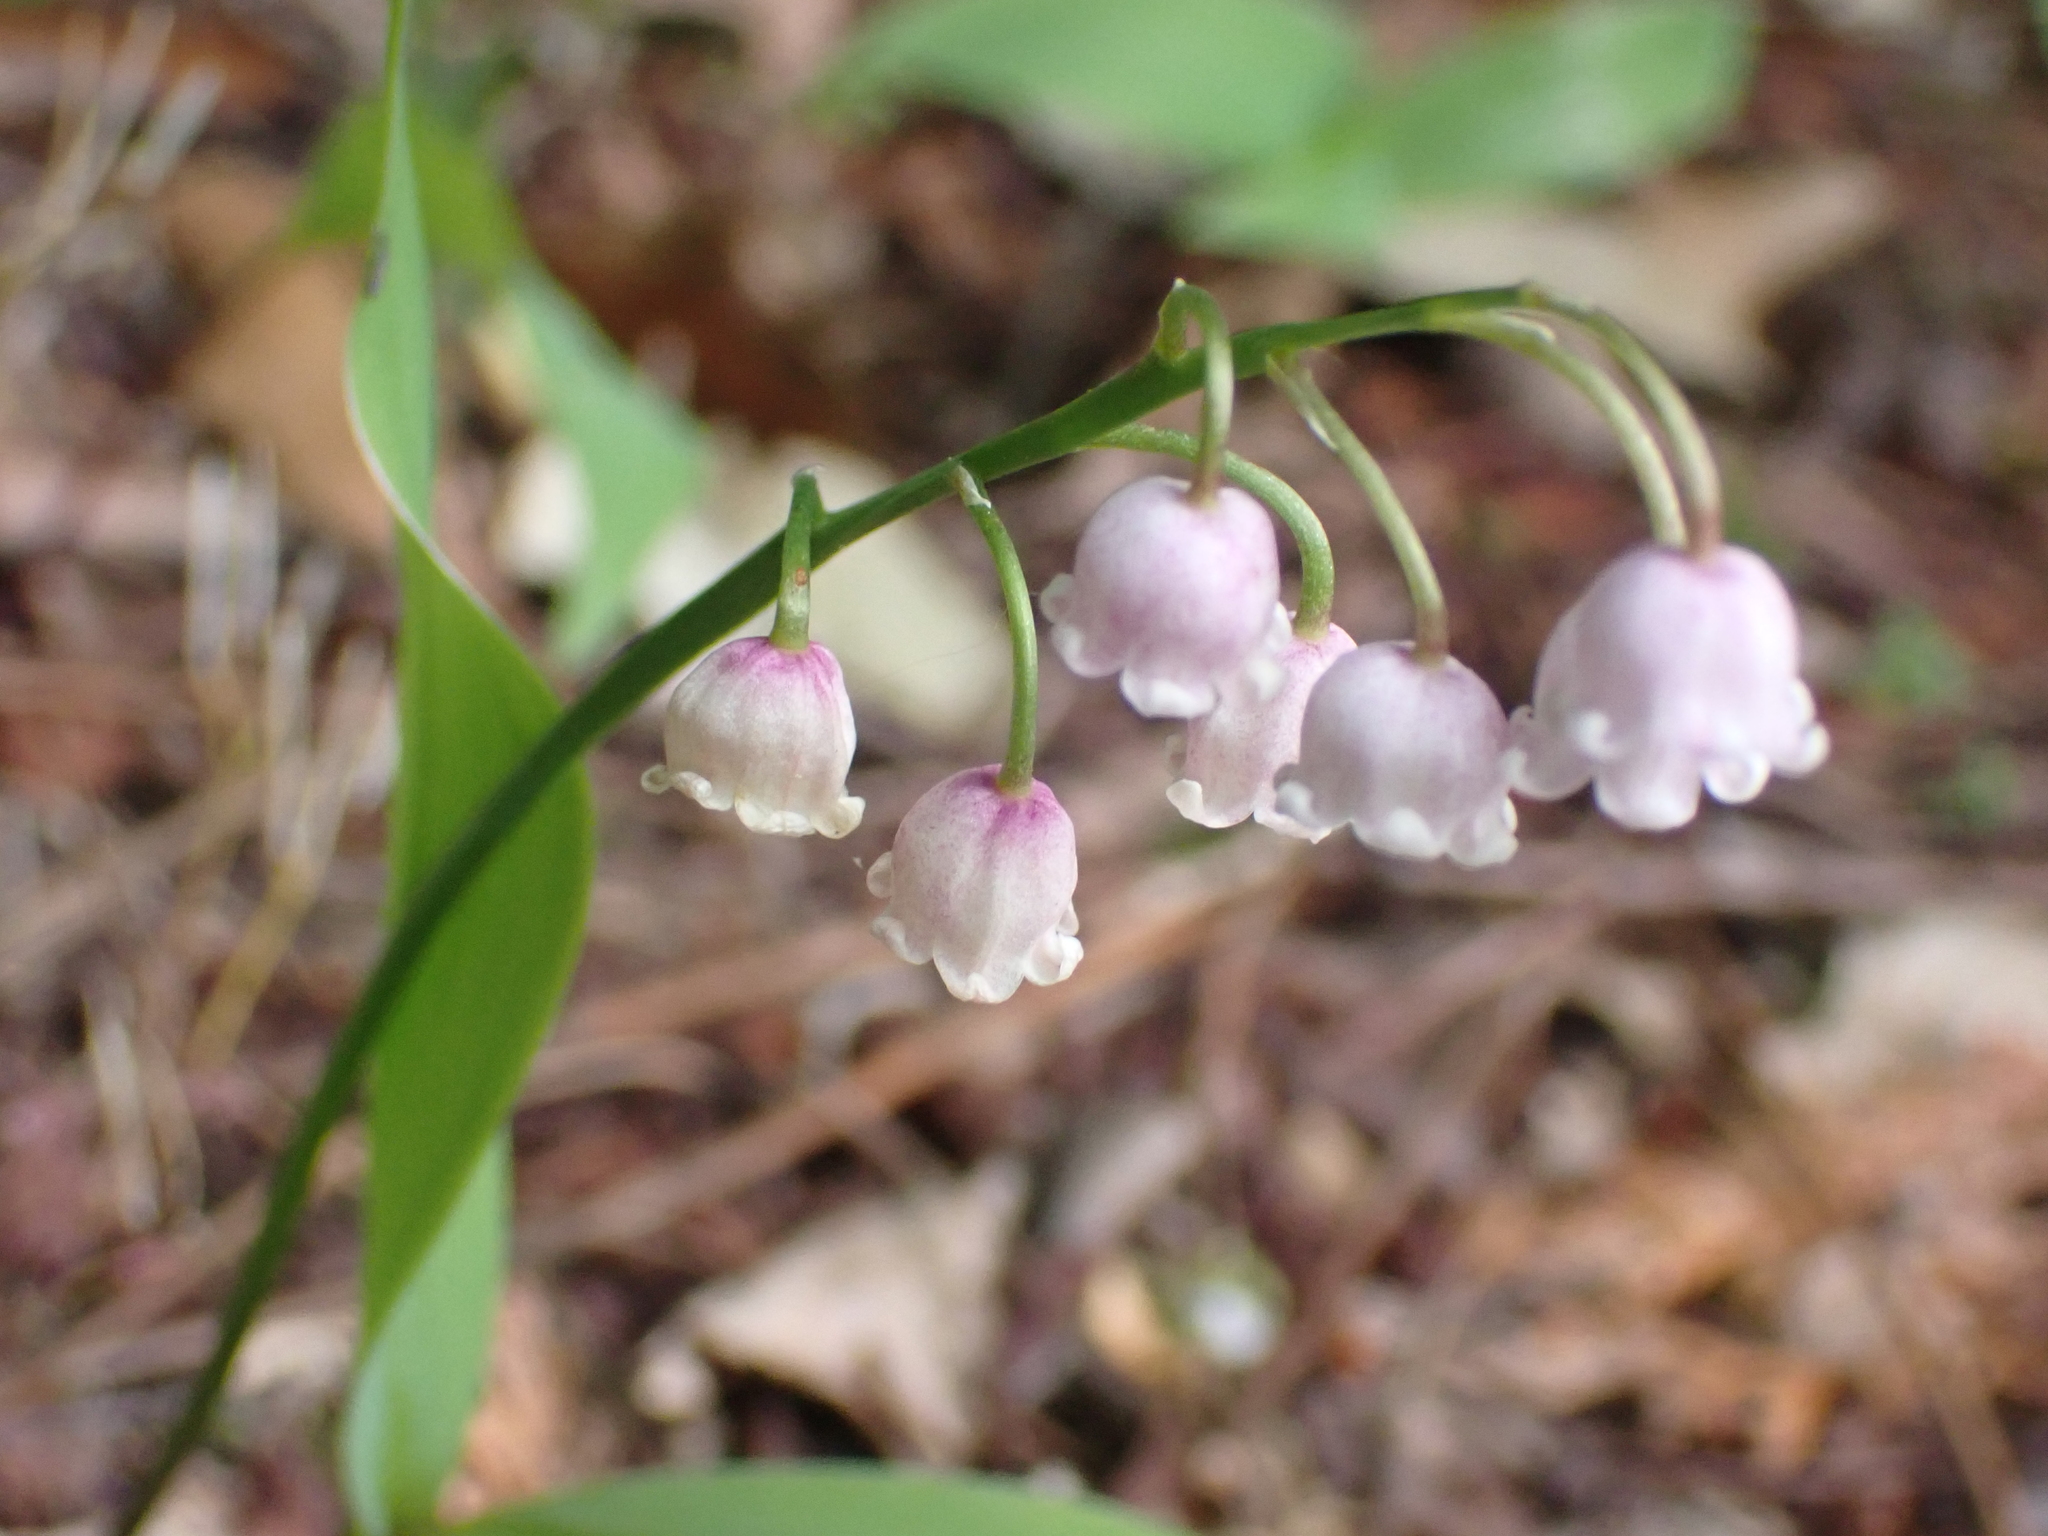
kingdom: Plantae
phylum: Tracheophyta
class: Liliopsida
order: Asparagales
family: Asparagaceae
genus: Convallaria
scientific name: Convallaria majalis
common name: Lily-of-the-valley
